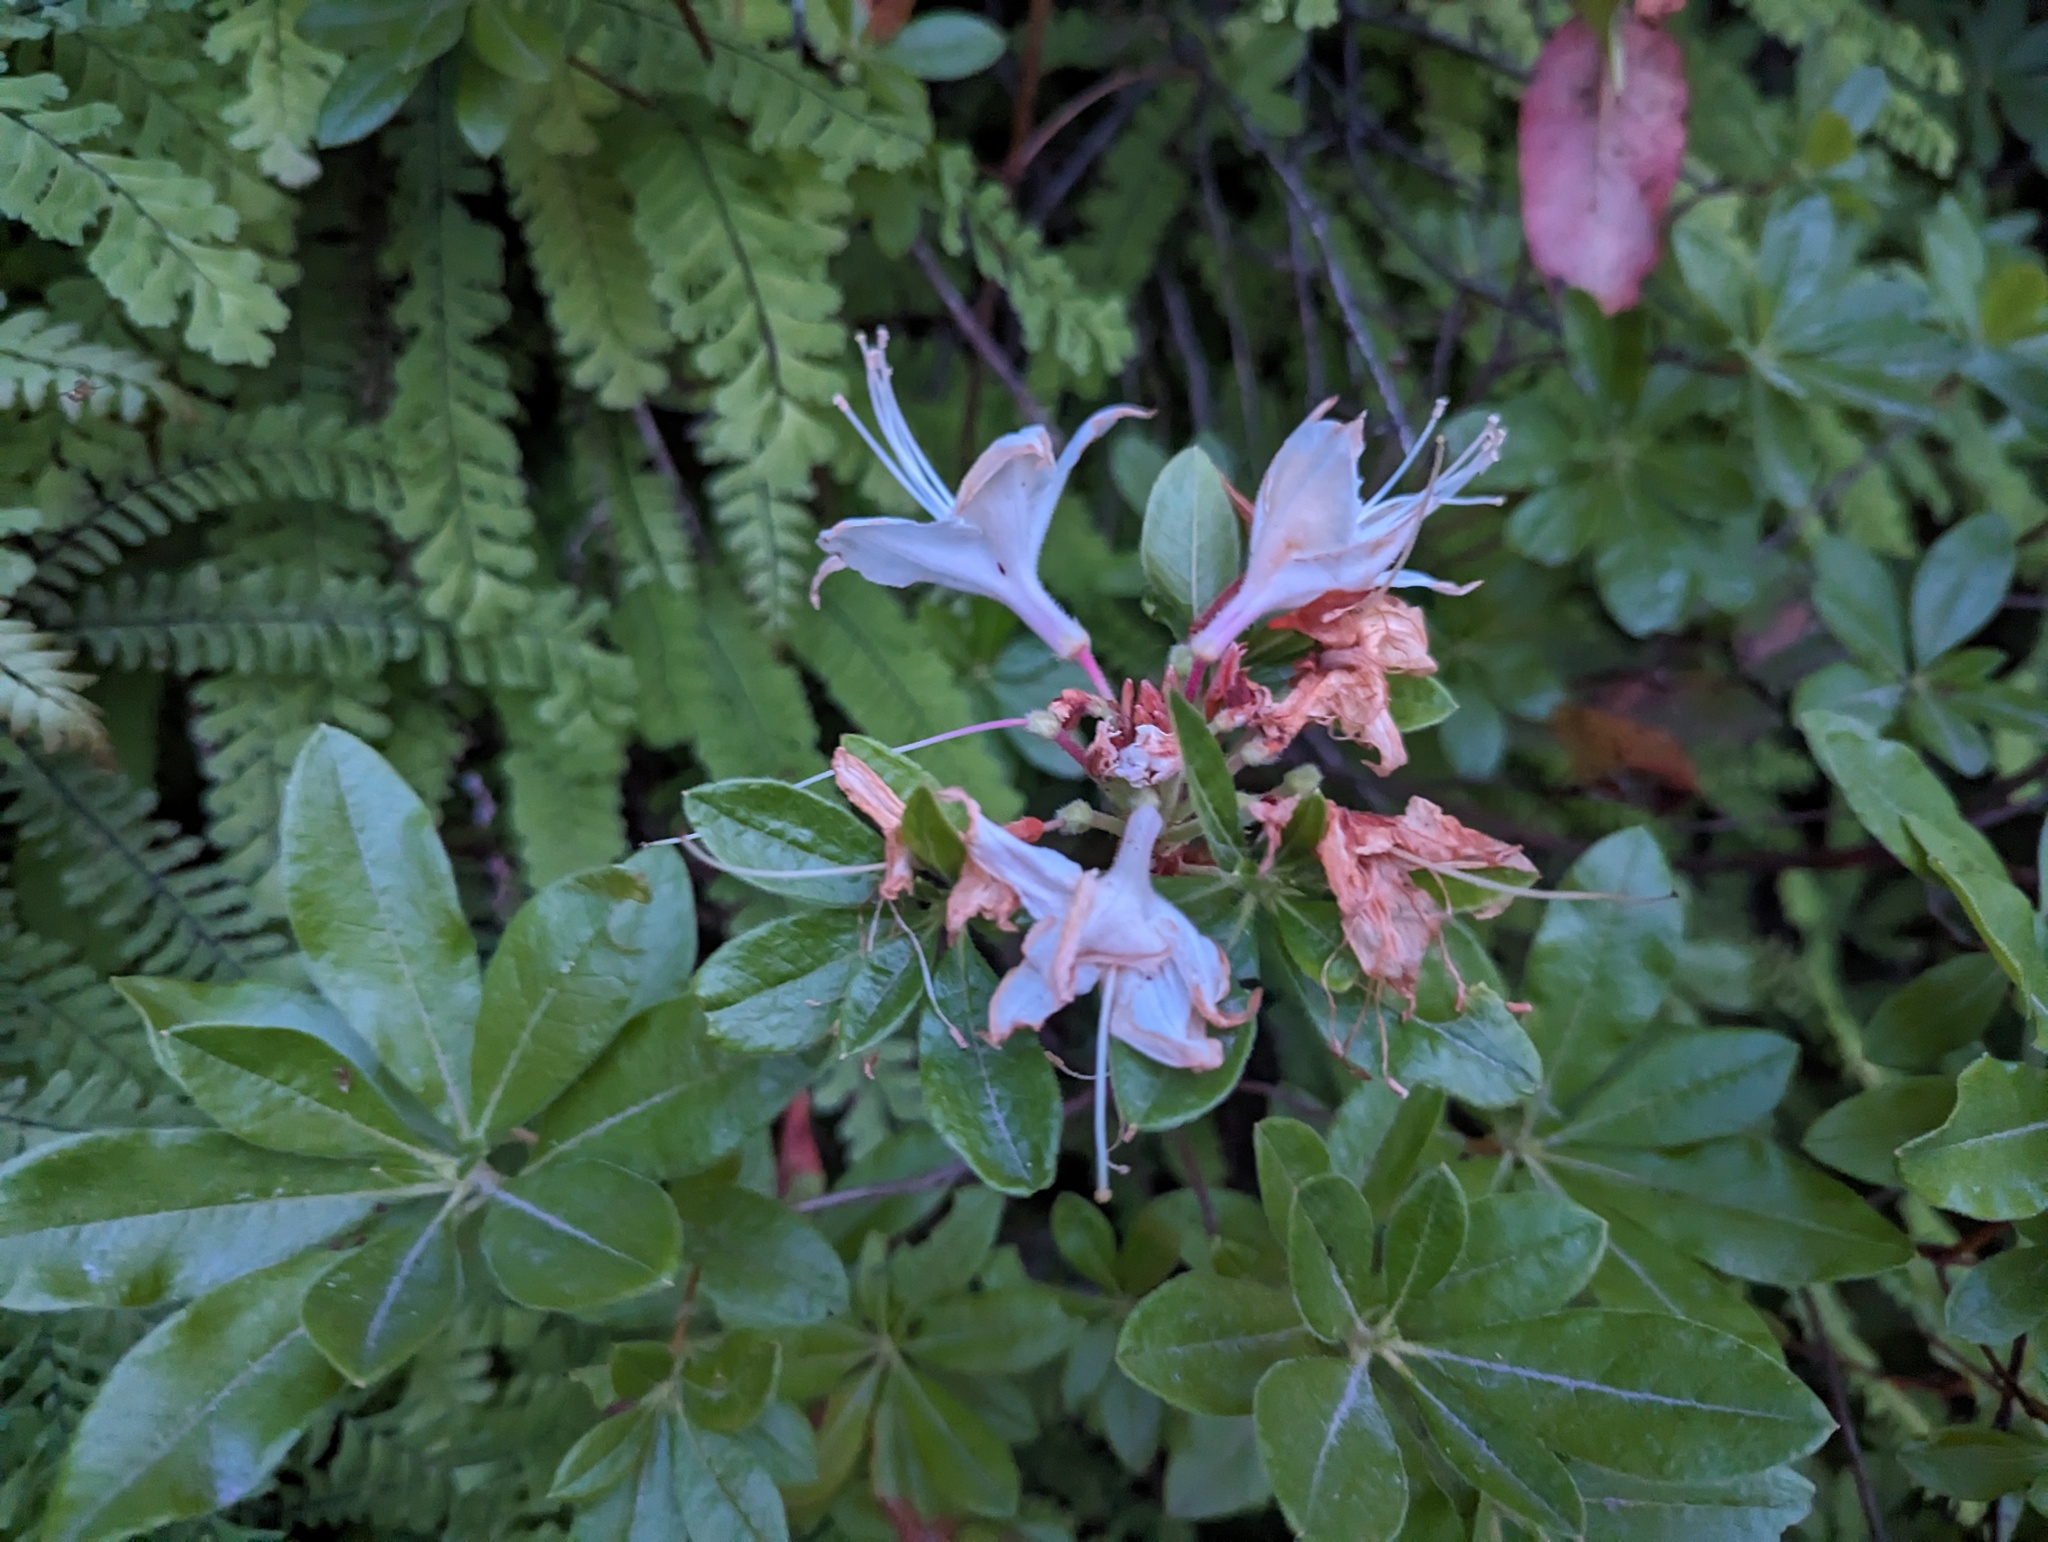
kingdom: Plantae
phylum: Tracheophyta
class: Magnoliopsida
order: Ericales
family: Ericaceae
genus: Rhododendron
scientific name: Rhododendron occidentale
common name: Western azalea
